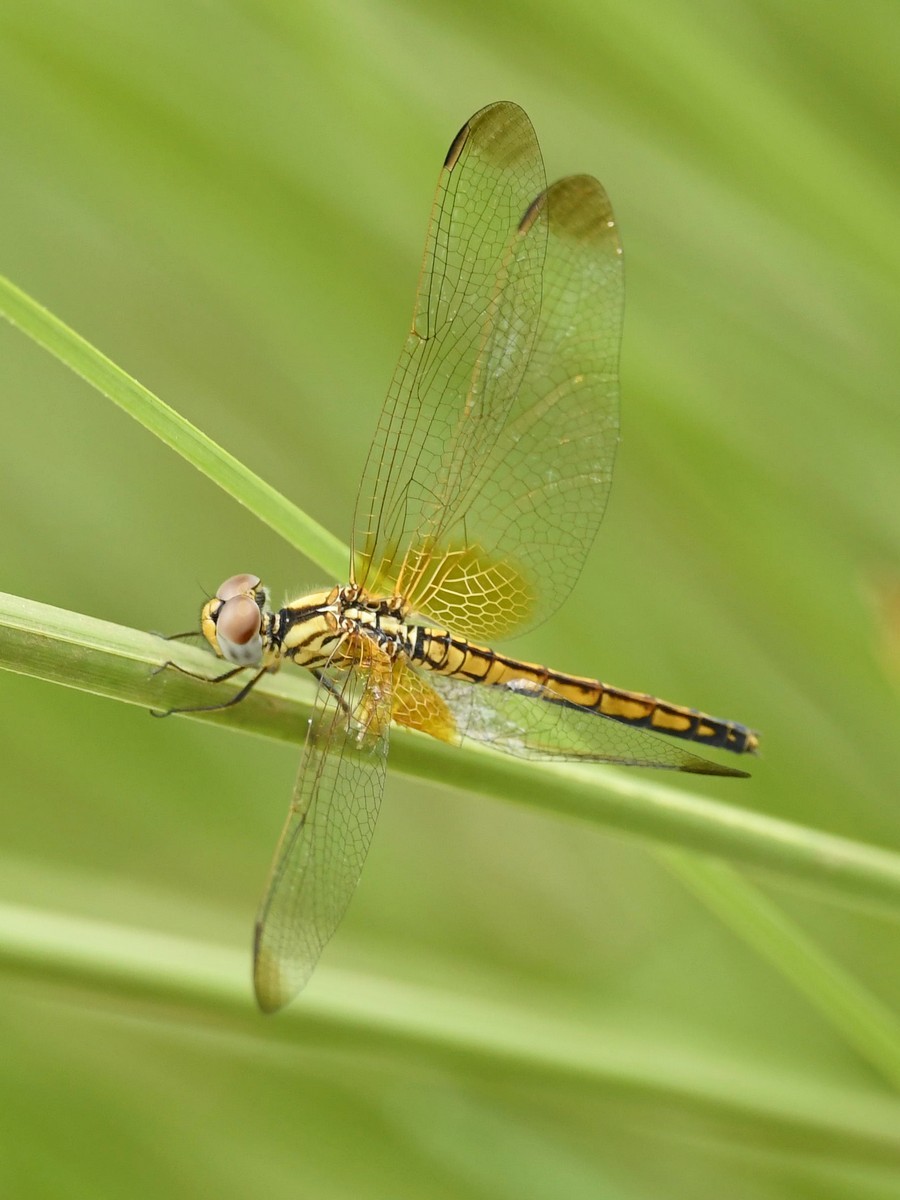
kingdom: Animalia
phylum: Arthropoda
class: Insecta
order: Odonata
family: Libellulidae
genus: Trithemis
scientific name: Trithemis aurora
